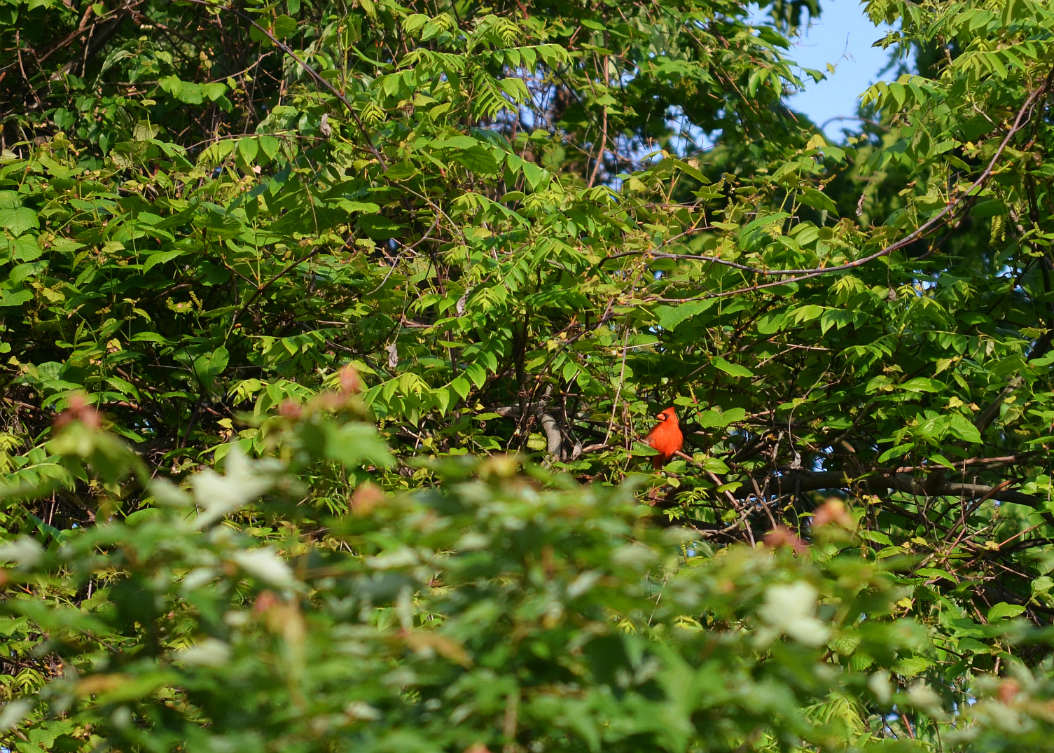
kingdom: Animalia
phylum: Chordata
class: Aves
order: Passeriformes
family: Cardinalidae
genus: Cardinalis
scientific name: Cardinalis cardinalis
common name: Northern cardinal
